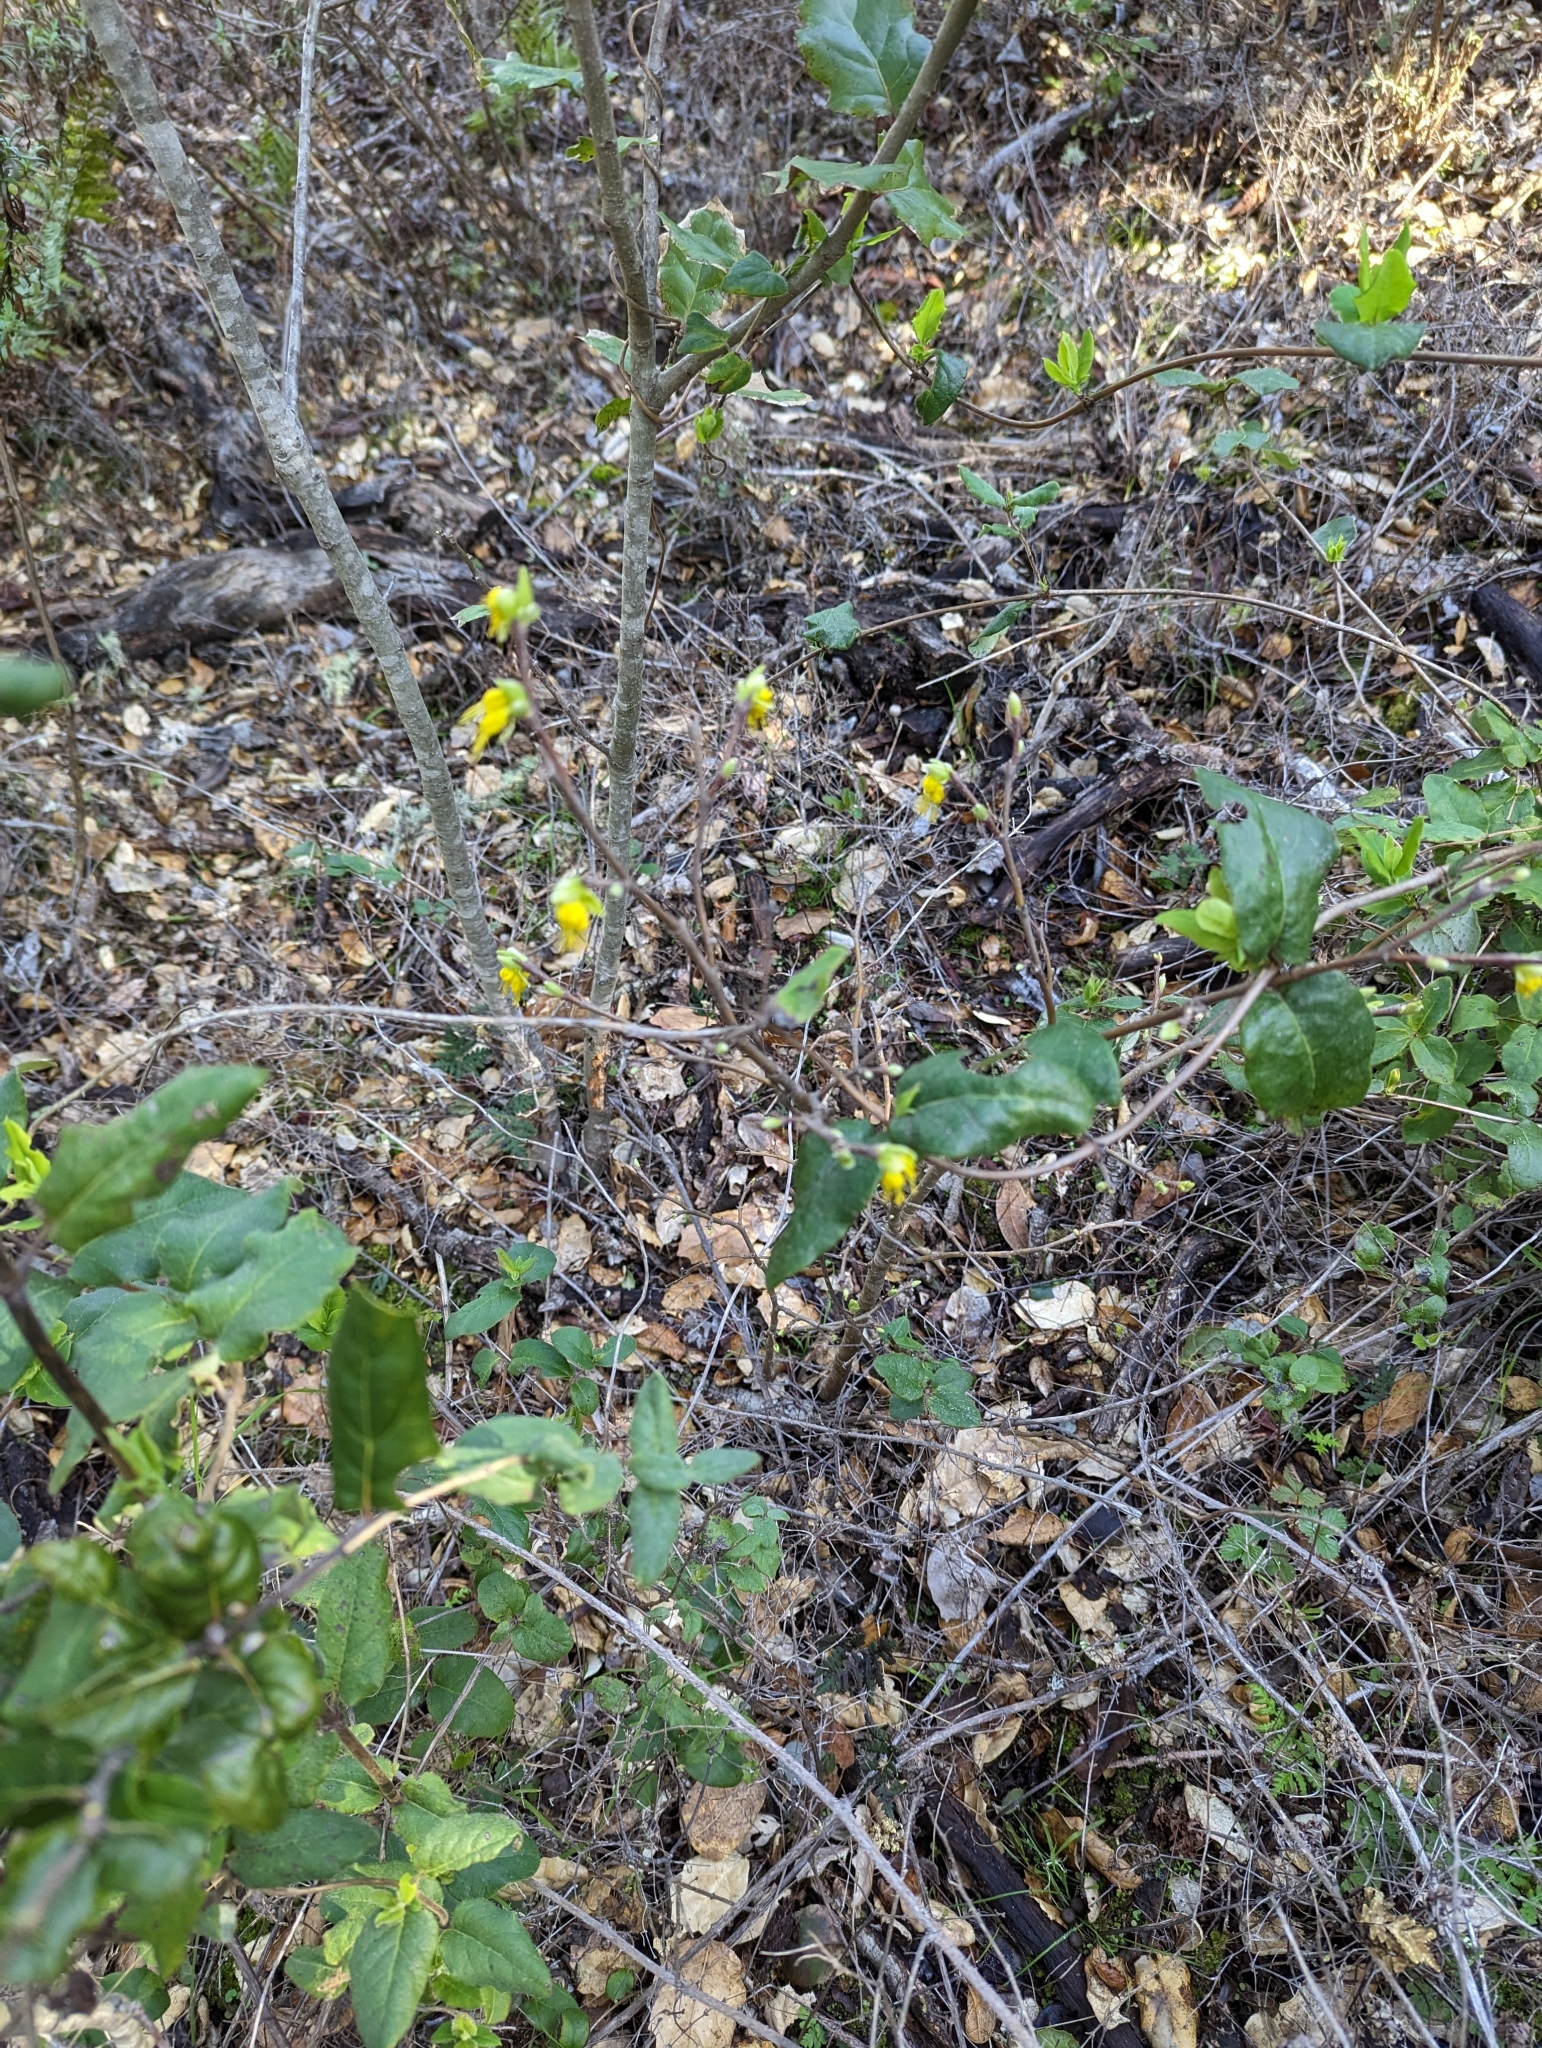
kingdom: Plantae
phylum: Tracheophyta
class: Magnoliopsida
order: Malvales
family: Thymelaeaceae
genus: Dirca
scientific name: Dirca occidentalis
